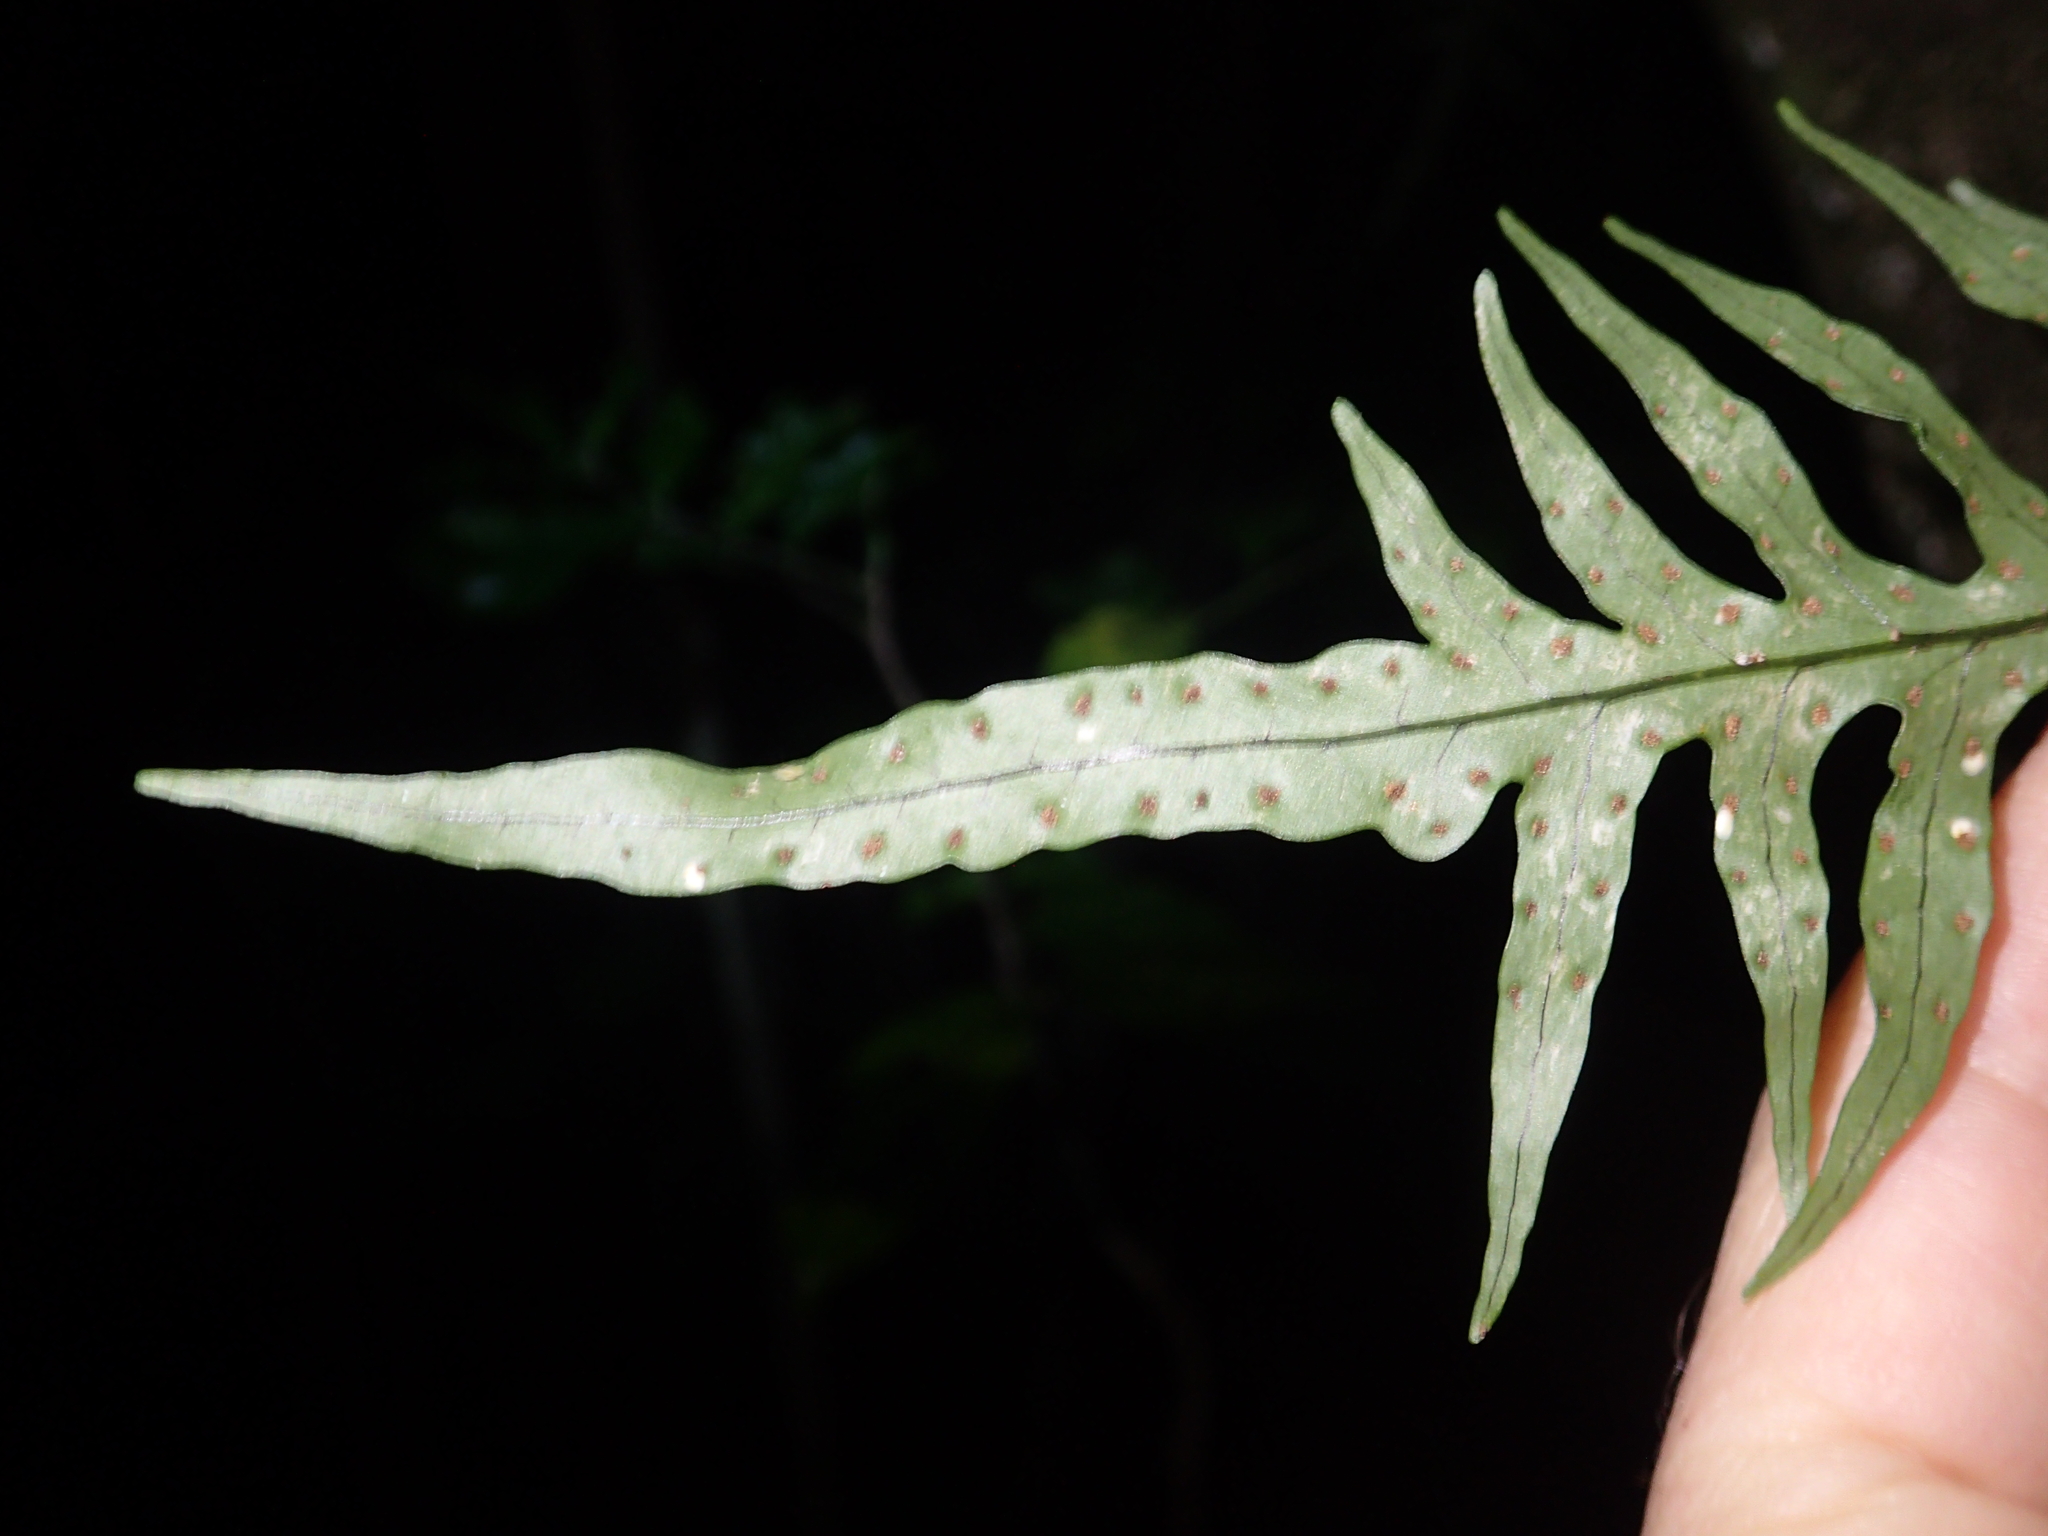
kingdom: Plantae
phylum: Tracheophyta
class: Polypodiopsida
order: Polypodiales
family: Polypodiaceae
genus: Lecanopteris
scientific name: Lecanopteris scandens
